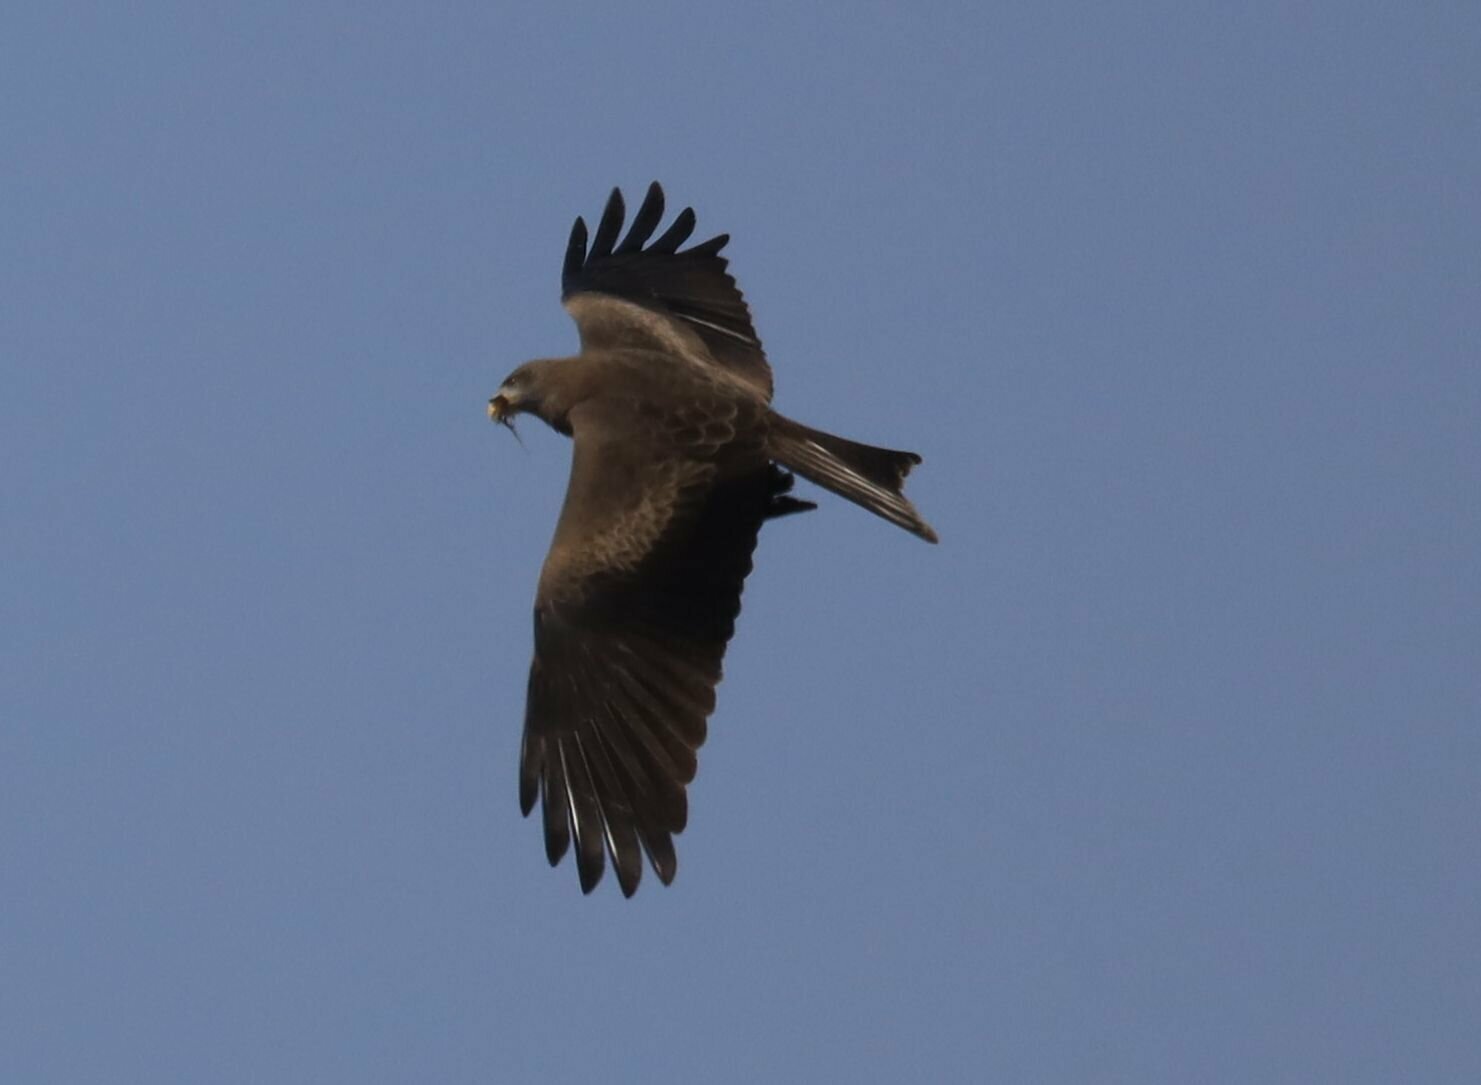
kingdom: Animalia
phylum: Chordata
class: Aves
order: Accipitriformes
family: Accipitridae
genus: Milvus
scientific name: Milvus migrans
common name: Black kite
